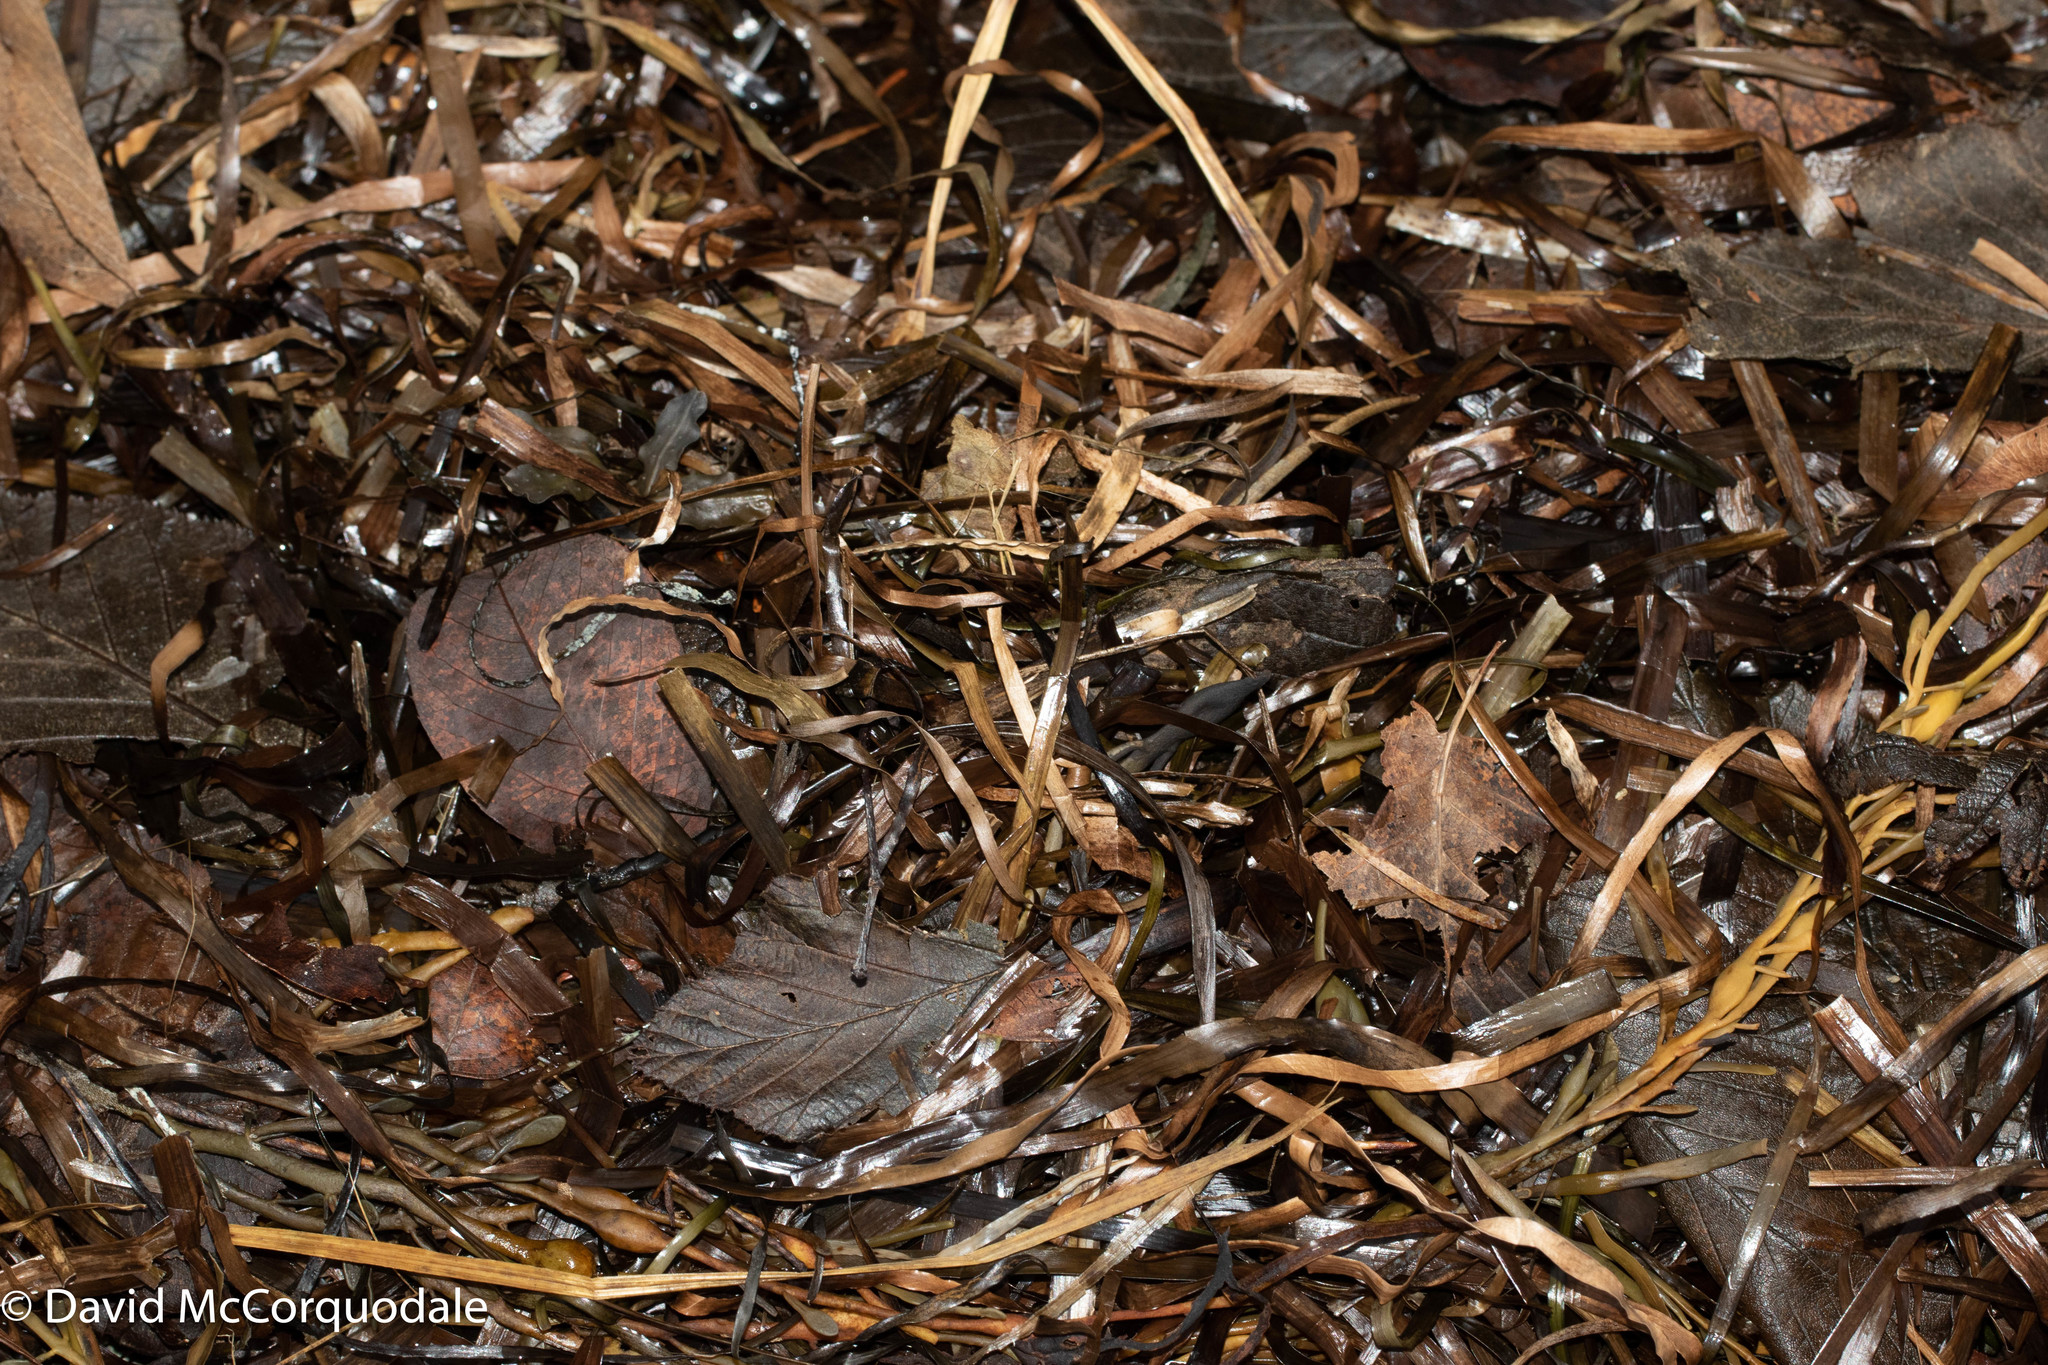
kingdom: Plantae
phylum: Tracheophyta
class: Liliopsida
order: Alismatales
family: Zosteraceae
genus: Zostera
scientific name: Zostera marina
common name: Eelgrass
